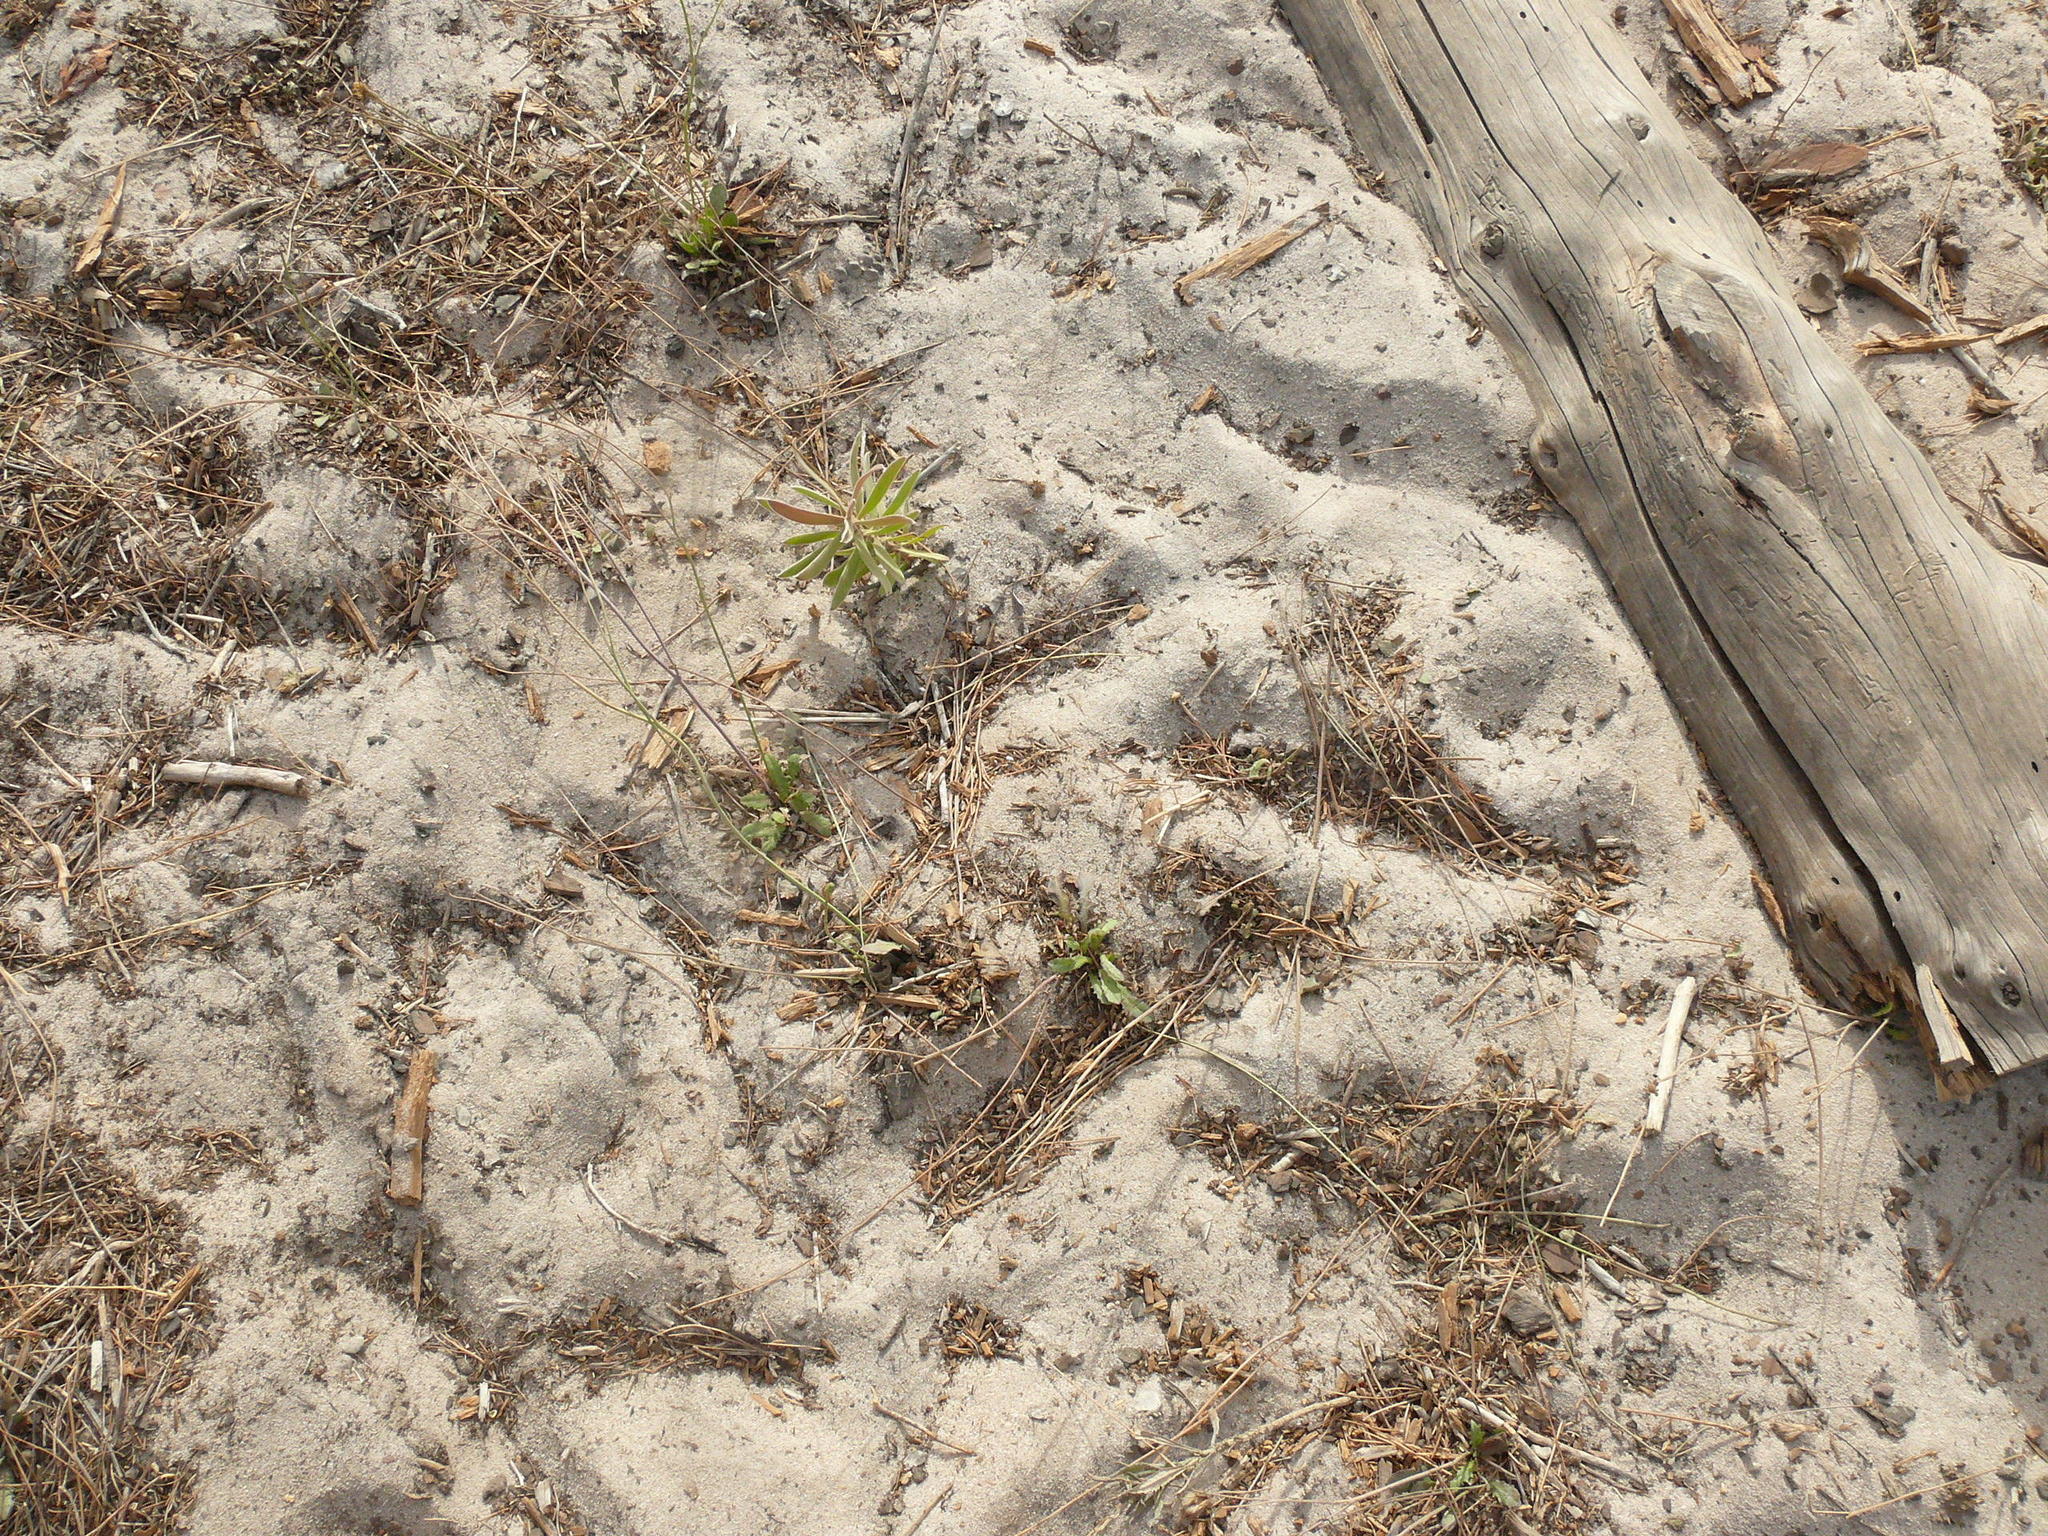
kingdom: Plantae
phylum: Tracheophyta
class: Magnoliopsida
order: Proteales
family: Proteaceae
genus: Leucadendron
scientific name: Leucadendron laureolum
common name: Golden sunshinebush
